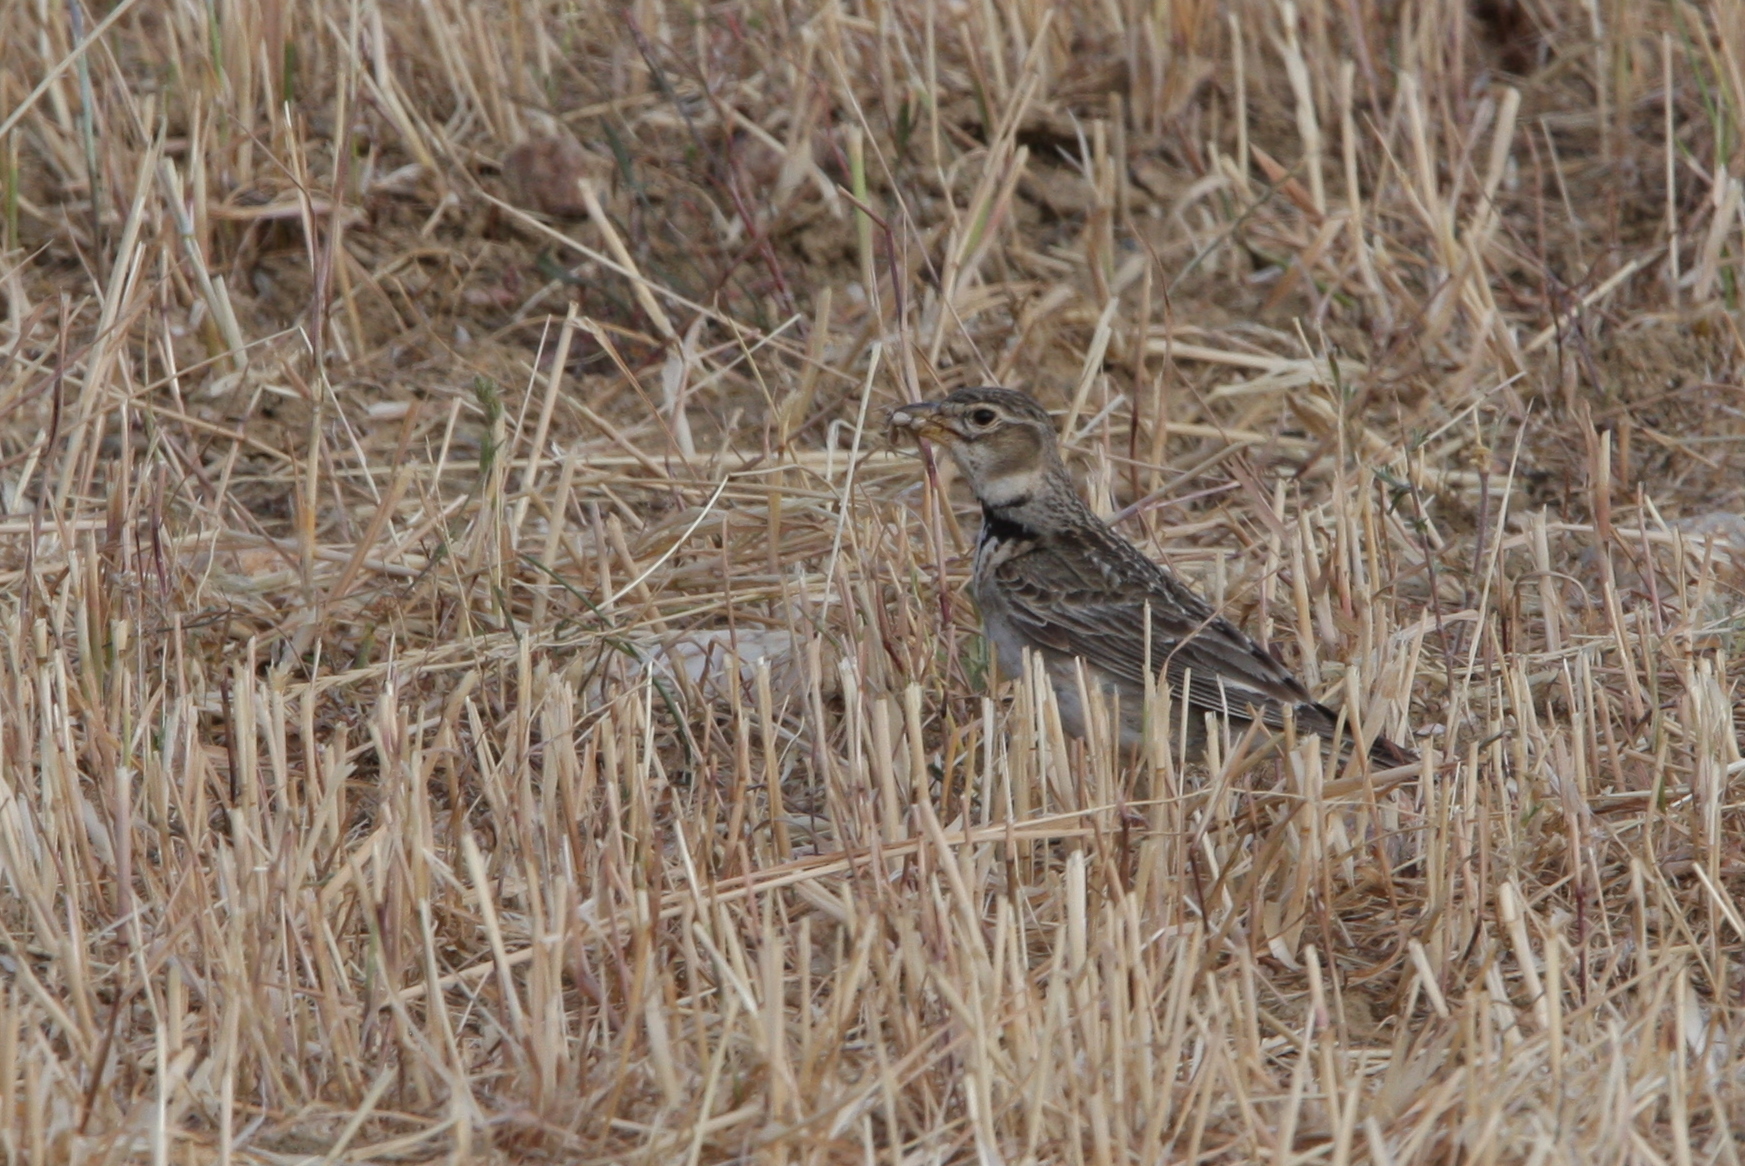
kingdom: Animalia
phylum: Chordata
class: Aves
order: Passeriformes
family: Alaudidae
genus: Melanocorypha
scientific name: Melanocorypha calandra
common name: Calandra lark
